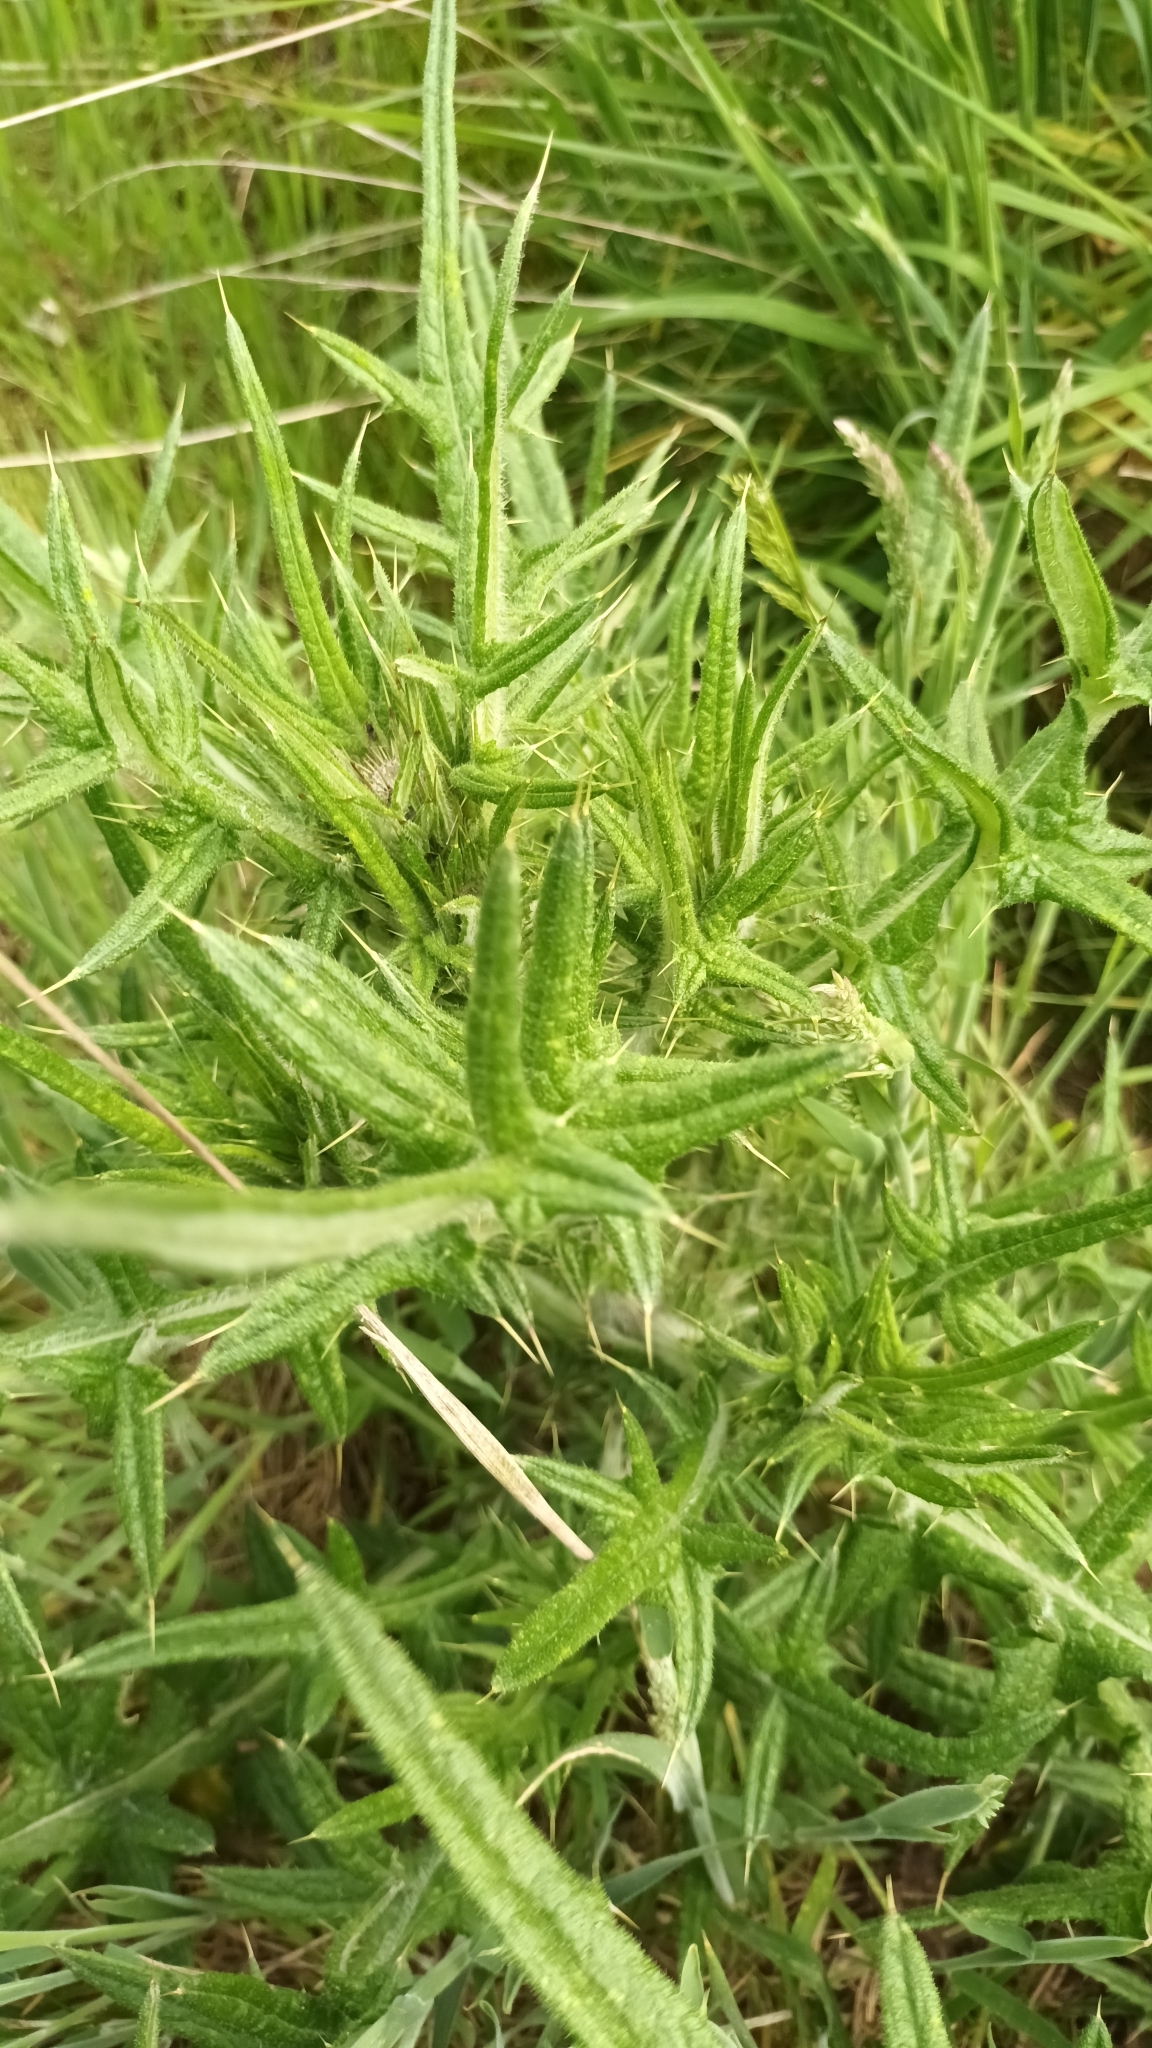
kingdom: Plantae
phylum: Tracheophyta
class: Magnoliopsida
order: Asterales
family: Asteraceae
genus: Cirsium
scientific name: Cirsium vulgare
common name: Bull thistle
